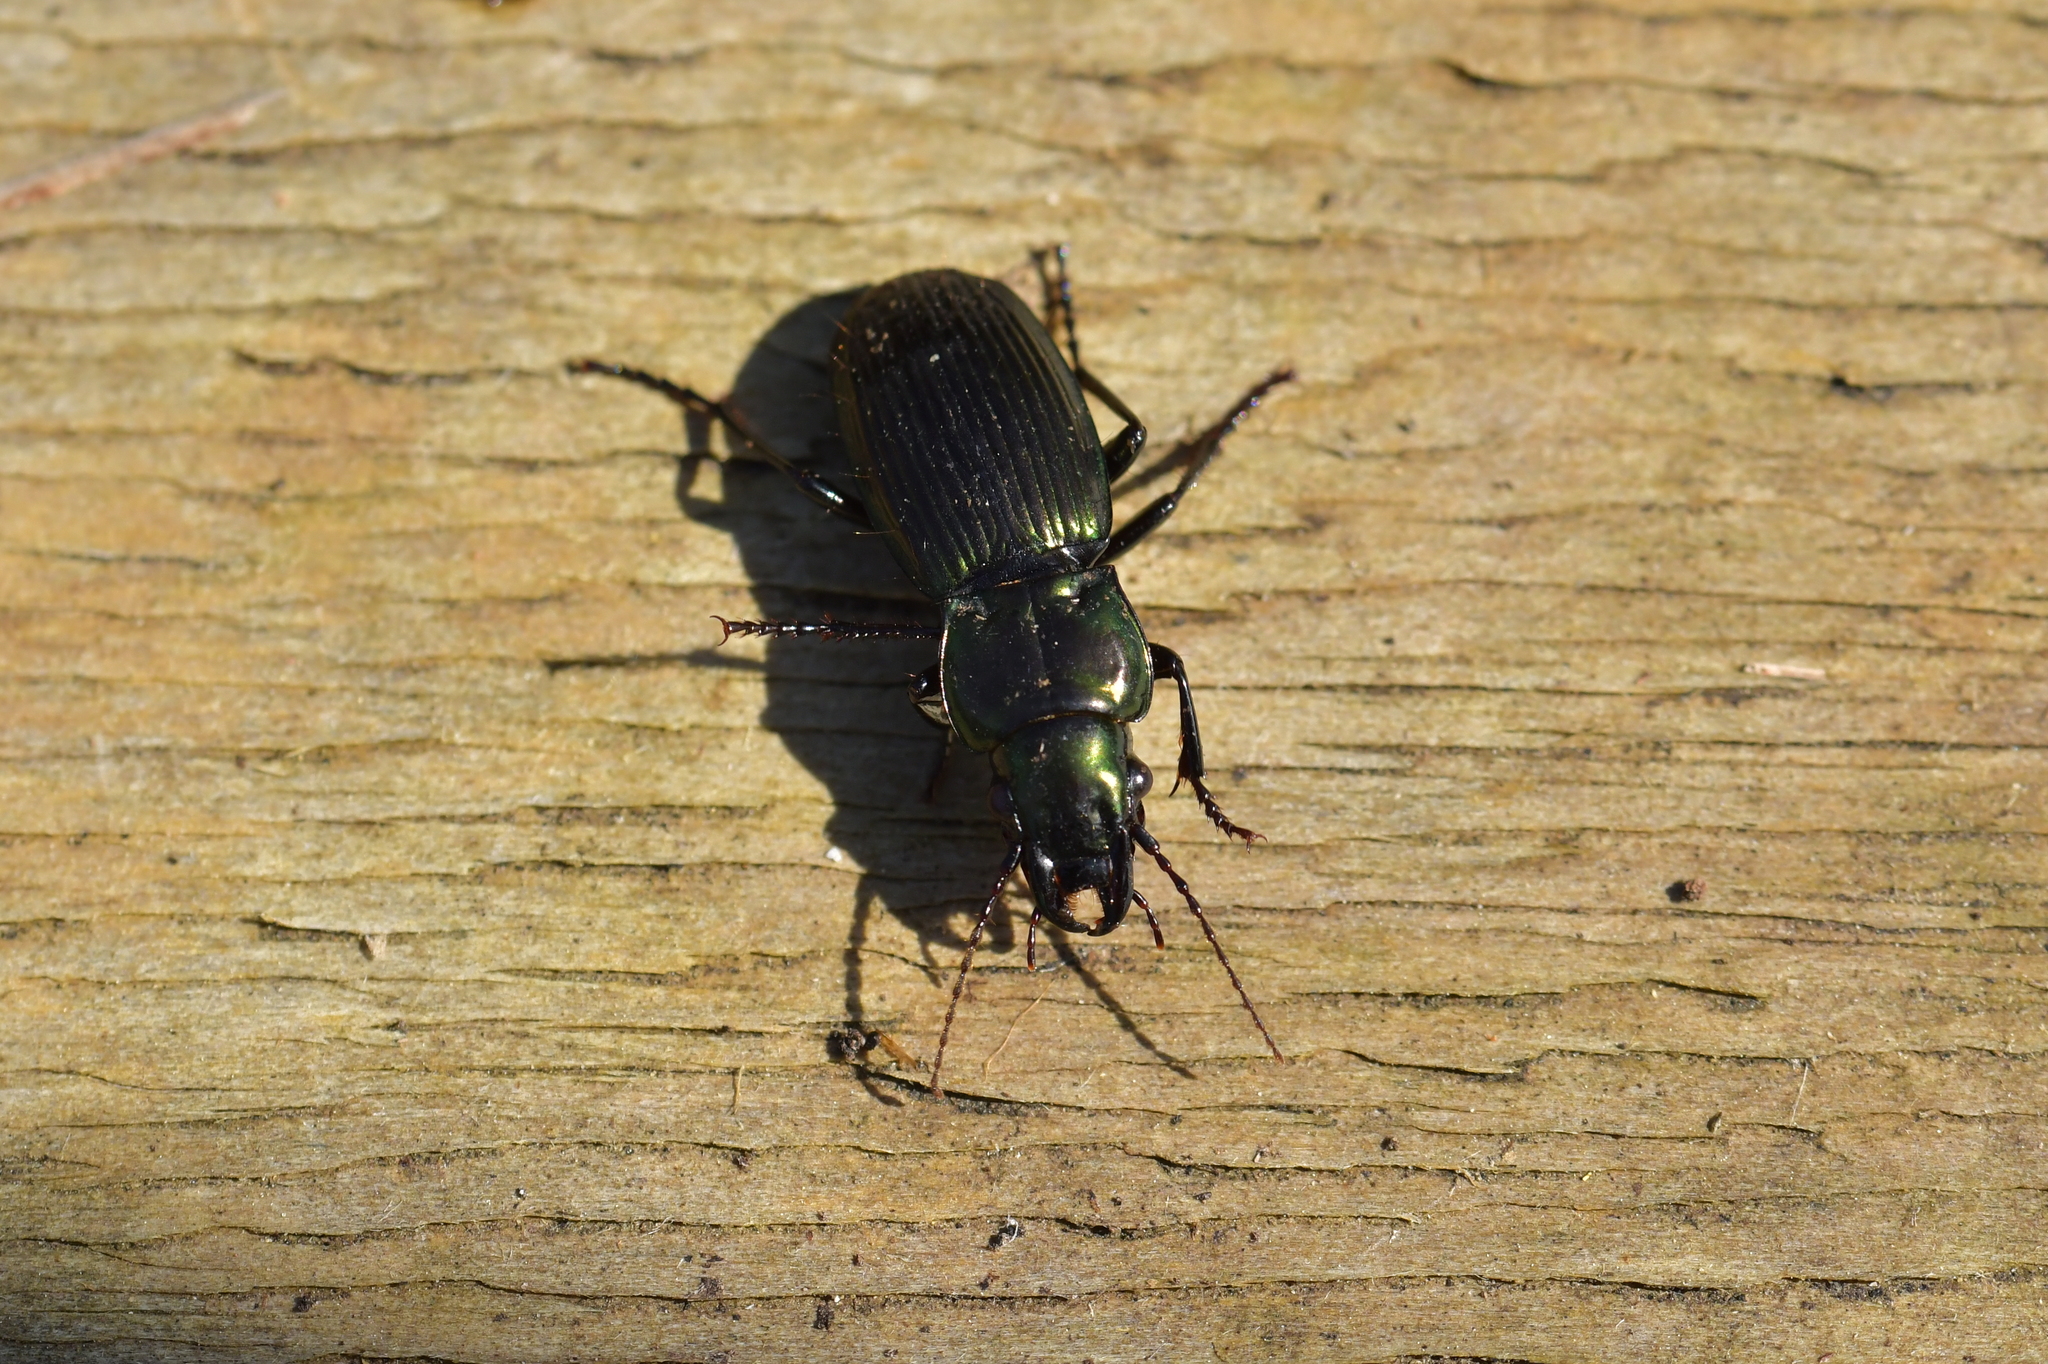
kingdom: Animalia
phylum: Arthropoda
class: Insecta
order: Coleoptera
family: Carabidae
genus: Megadromus
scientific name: Megadromus capito
